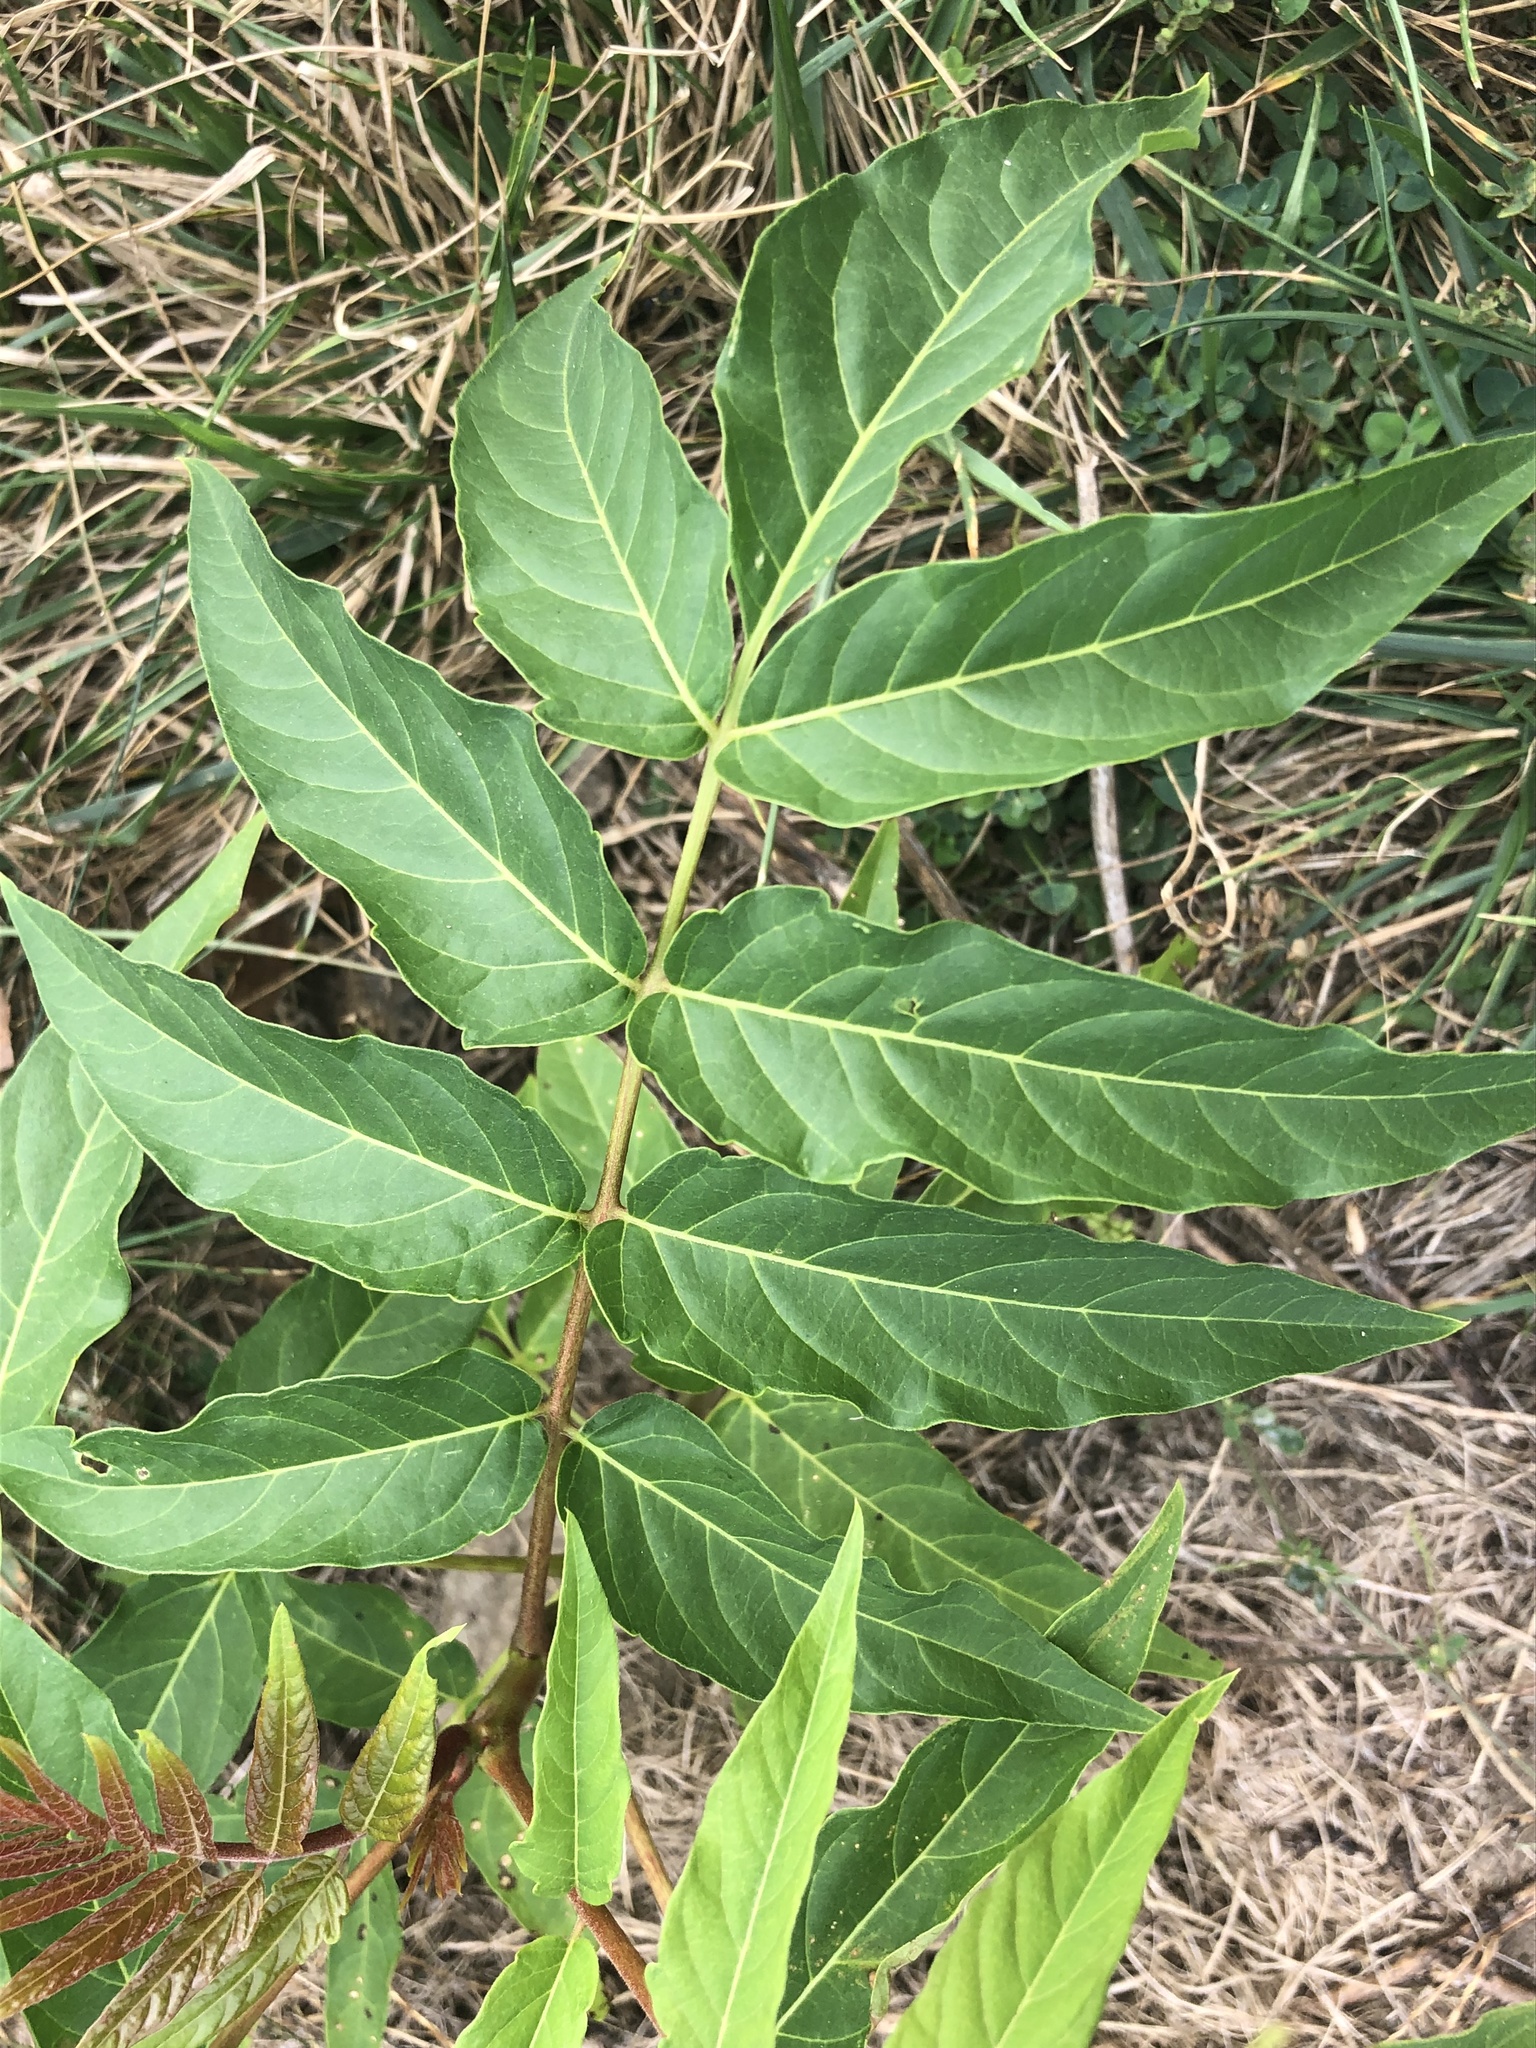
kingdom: Plantae
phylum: Tracheophyta
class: Magnoliopsida
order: Sapindales
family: Simaroubaceae
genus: Ailanthus
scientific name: Ailanthus altissima
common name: Tree-of-heaven
